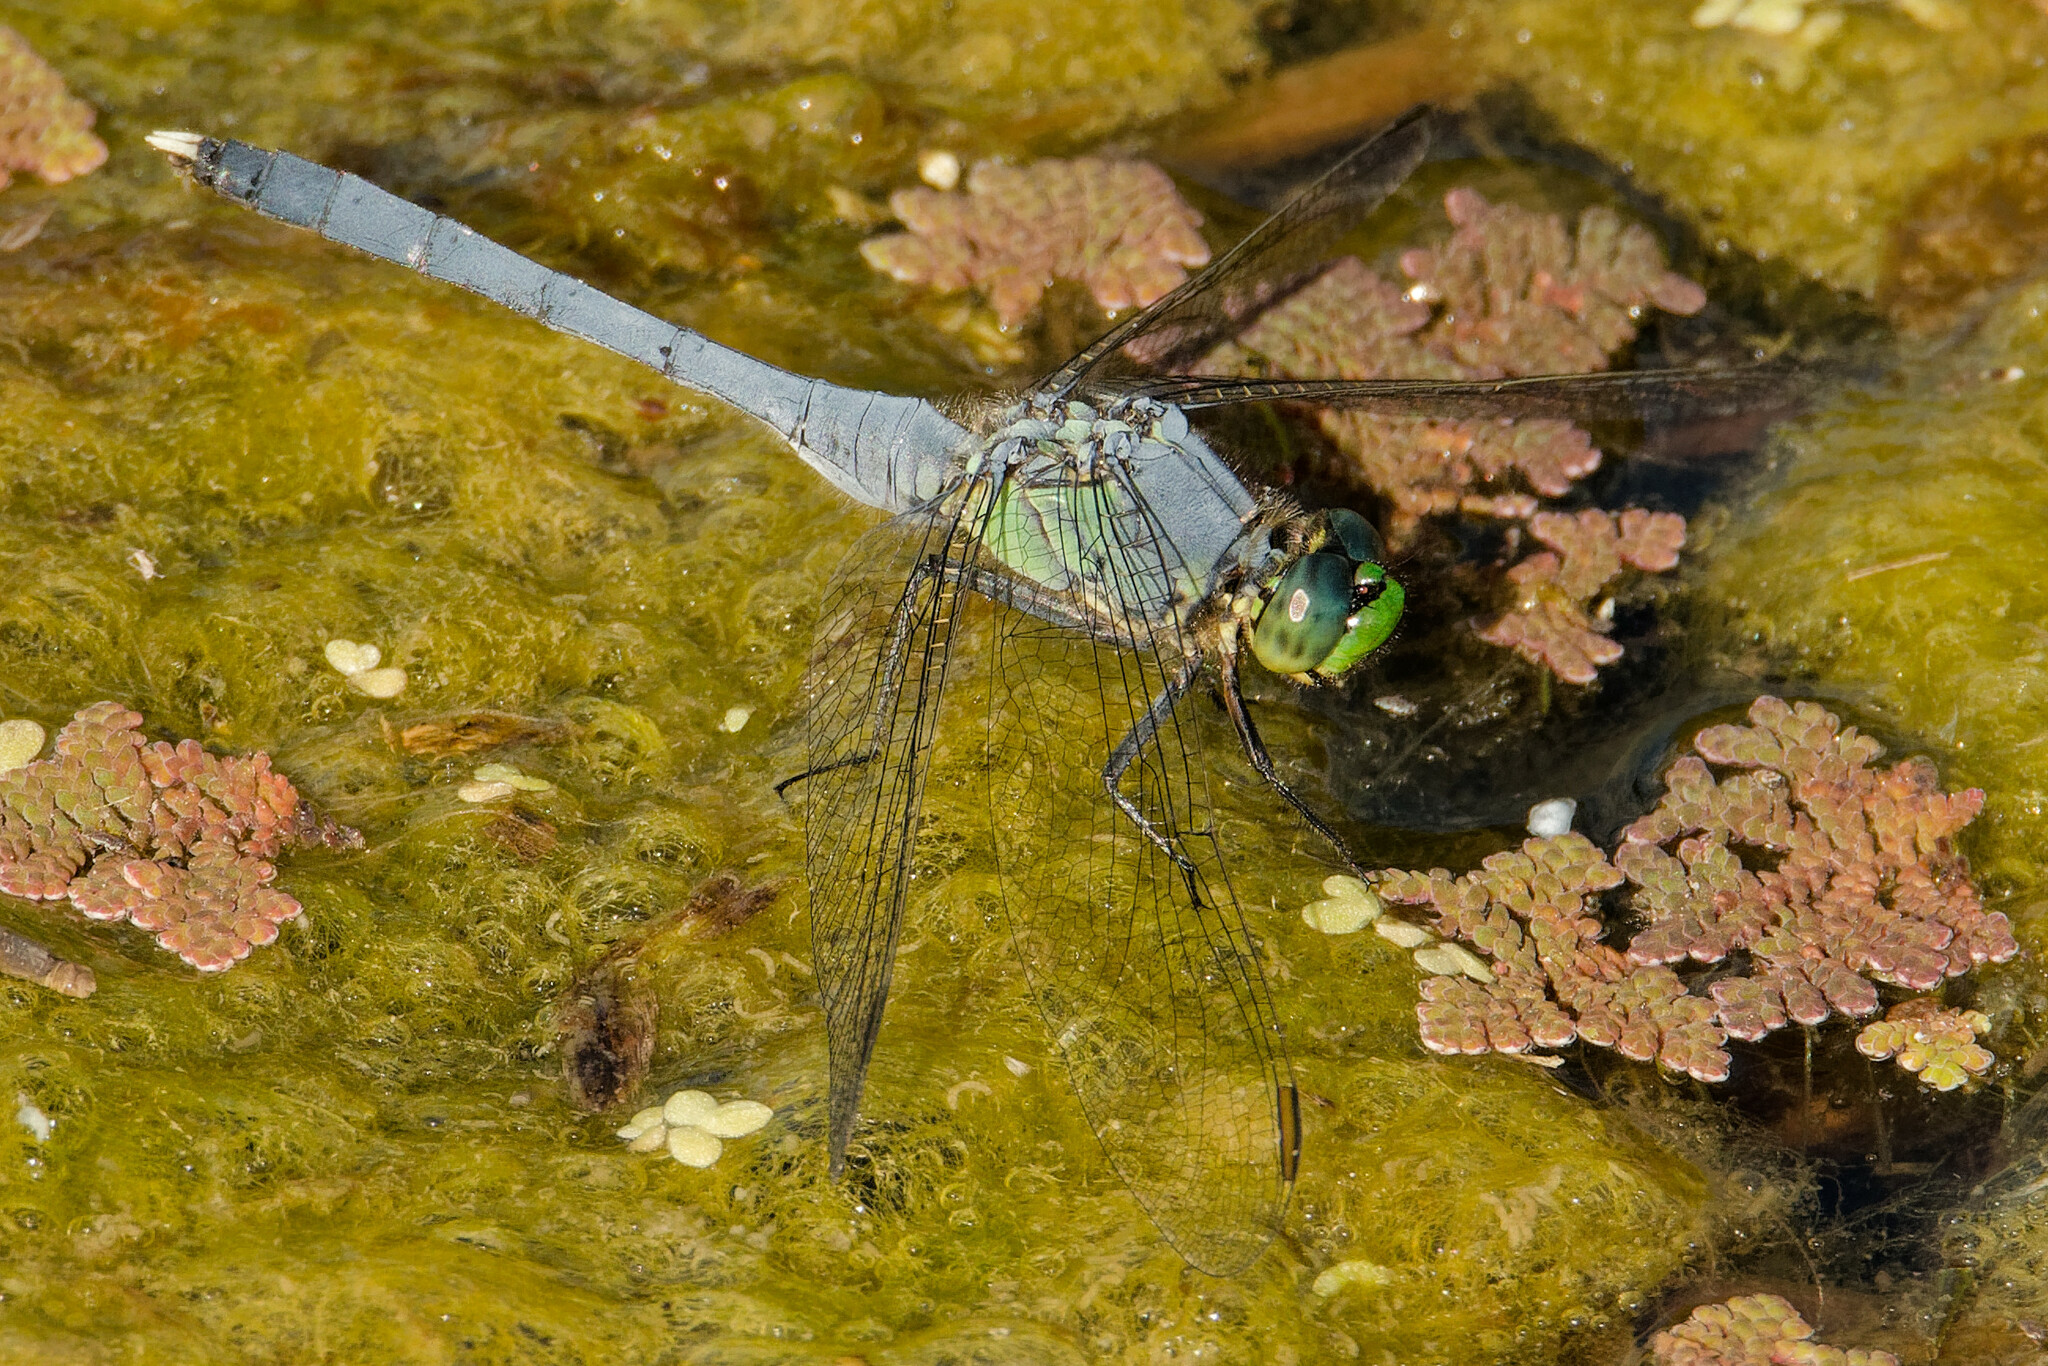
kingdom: Animalia
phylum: Arthropoda
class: Insecta
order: Odonata
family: Libellulidae
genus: Erythemis
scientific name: Erythemis simplicicollis
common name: Eastern pondhawk
